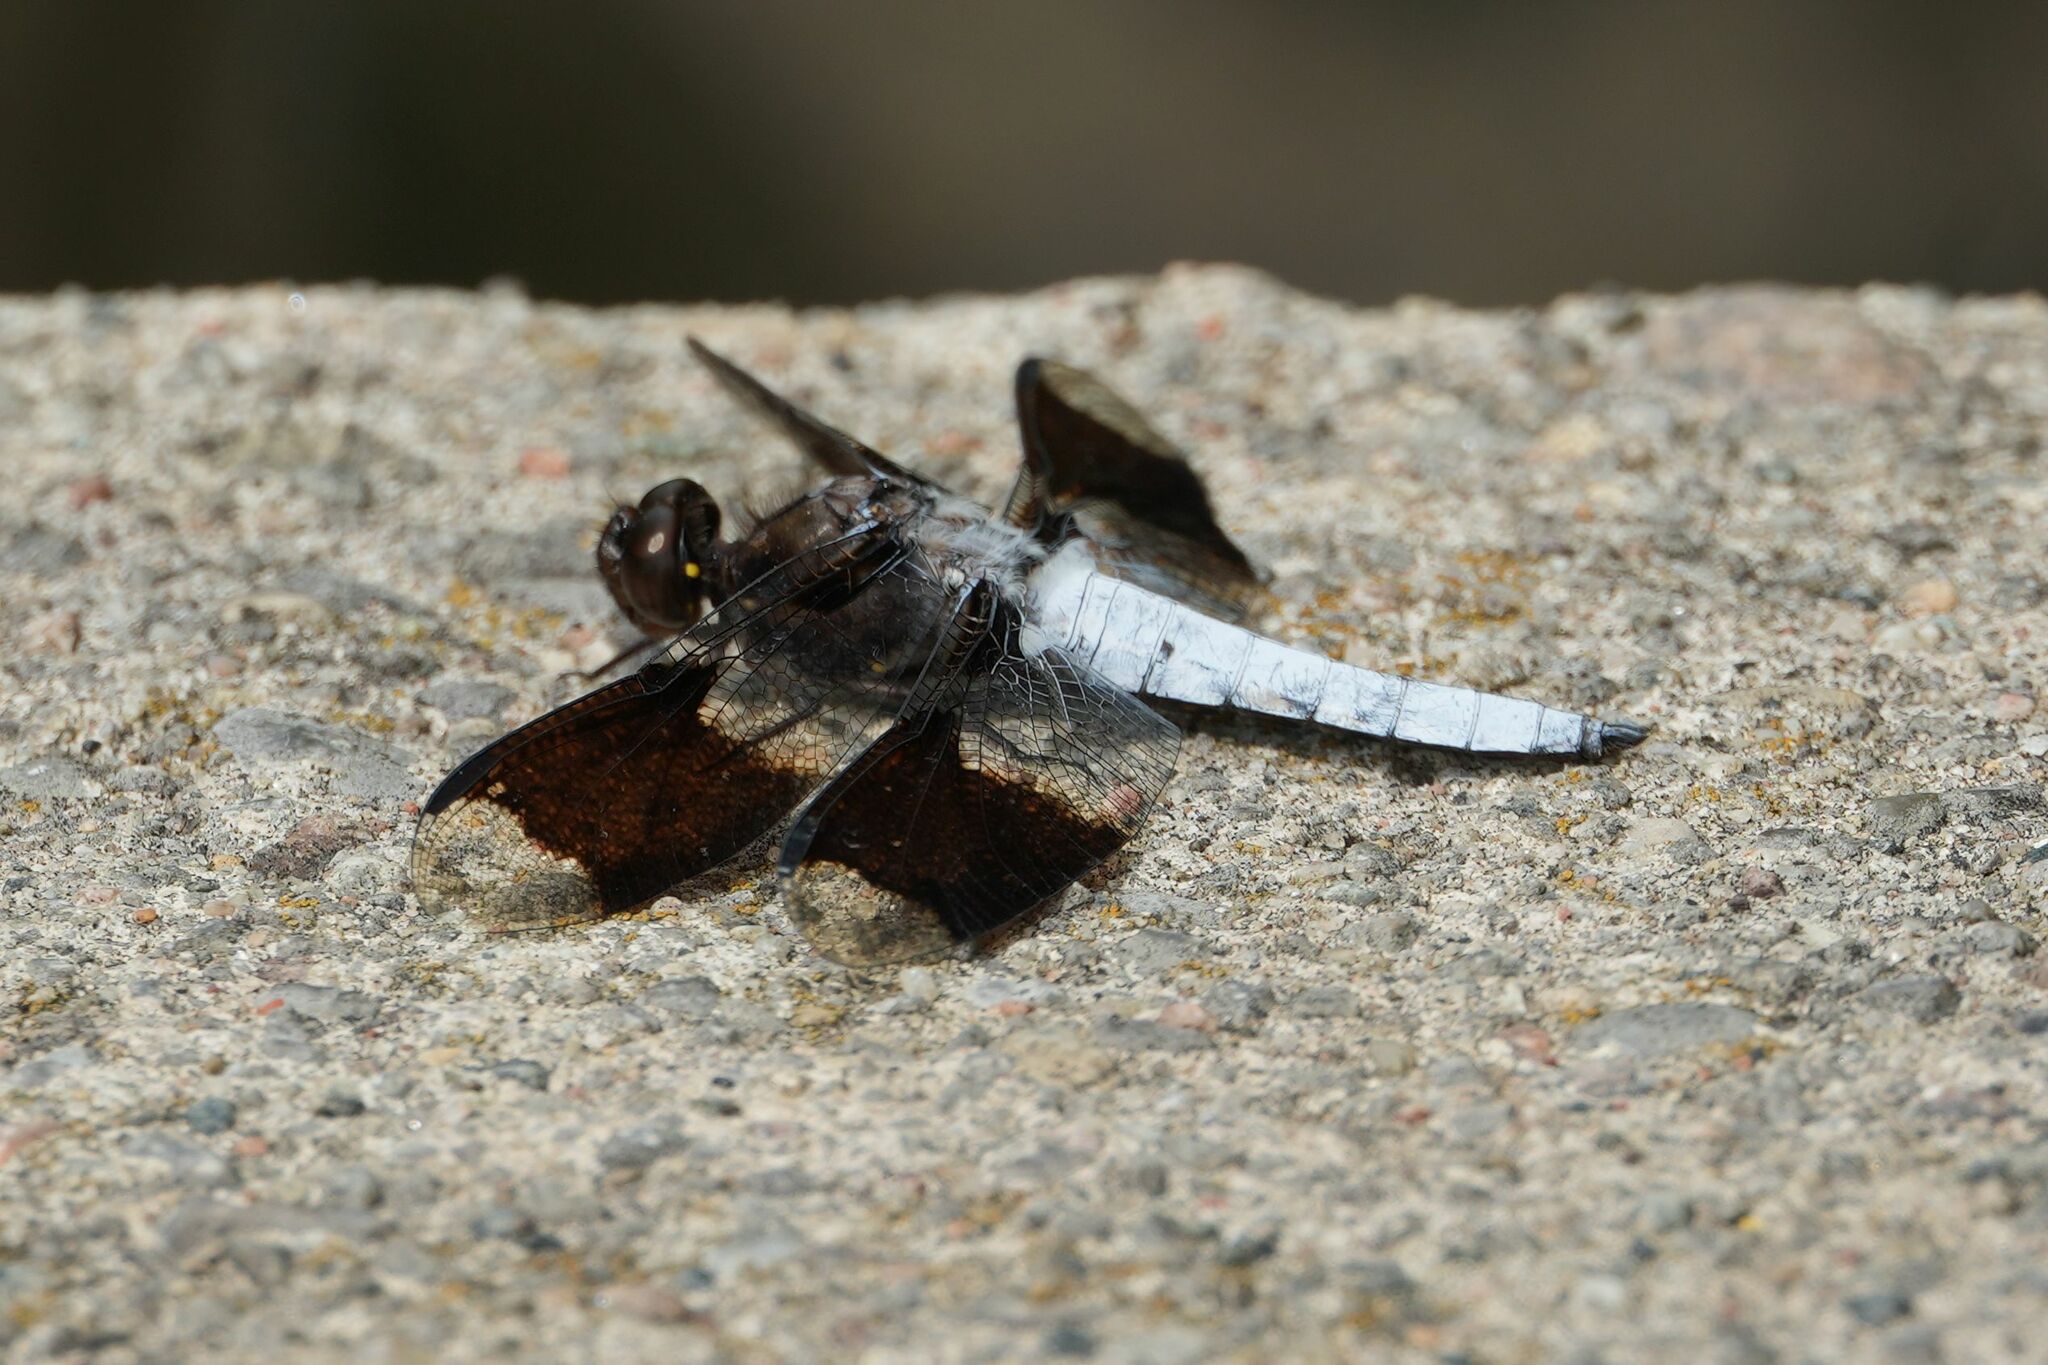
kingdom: Animalia
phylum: Arthropoda
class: Insecta
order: Odonata
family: Libellulidae
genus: Plathemis
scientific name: Plathemis lydia
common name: Common whitetail
